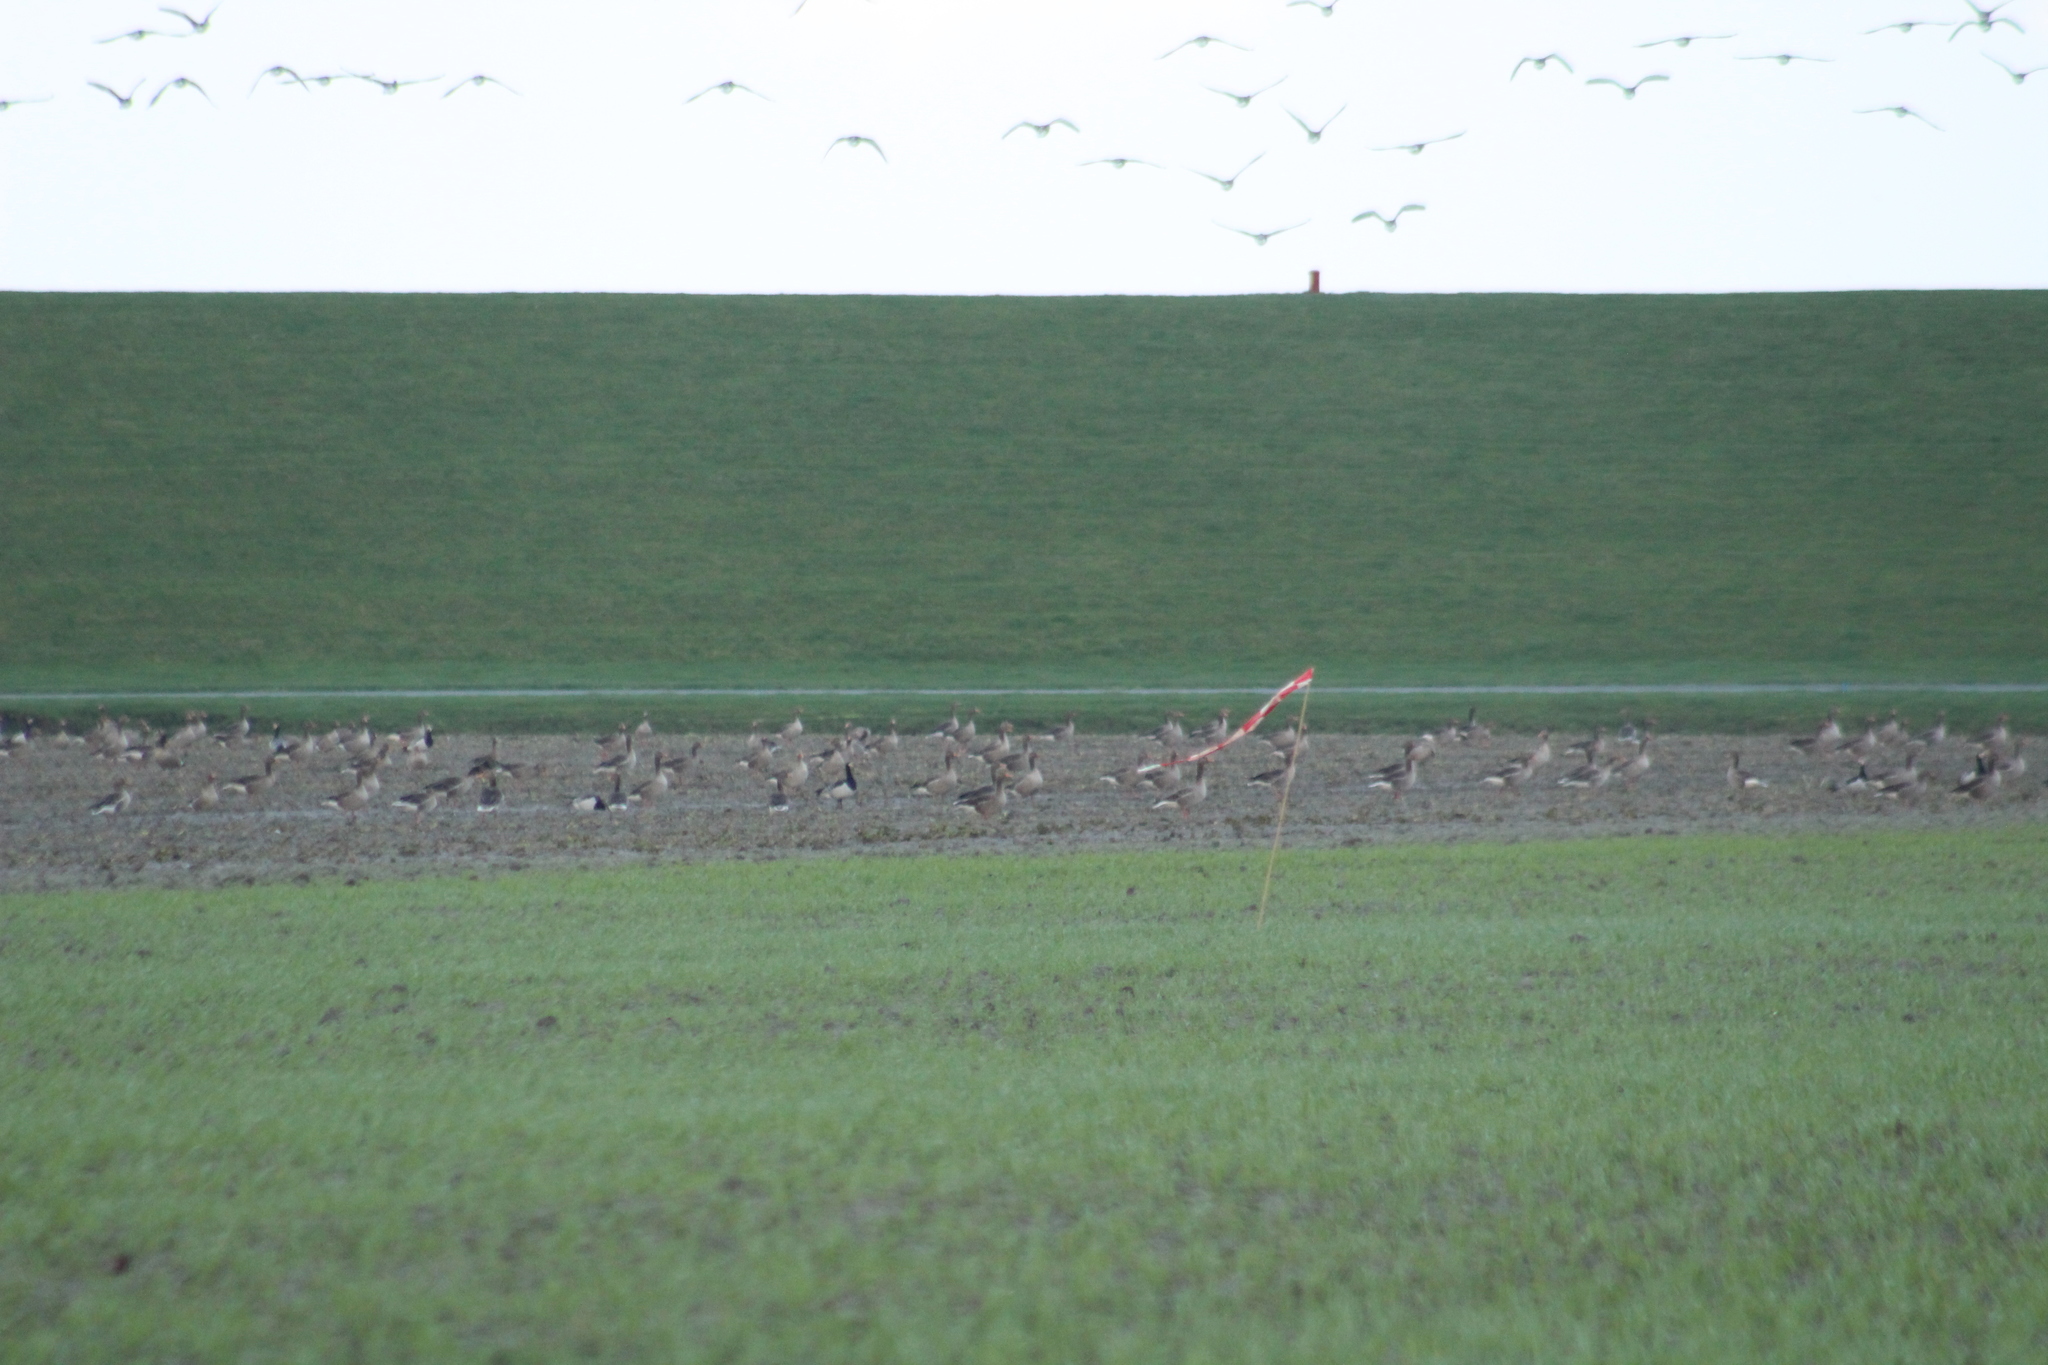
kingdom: Animalia
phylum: Chordata
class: Aves
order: Anseriformes
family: Anatidae
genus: Anser
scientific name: Anser anser
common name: Greylag goose
